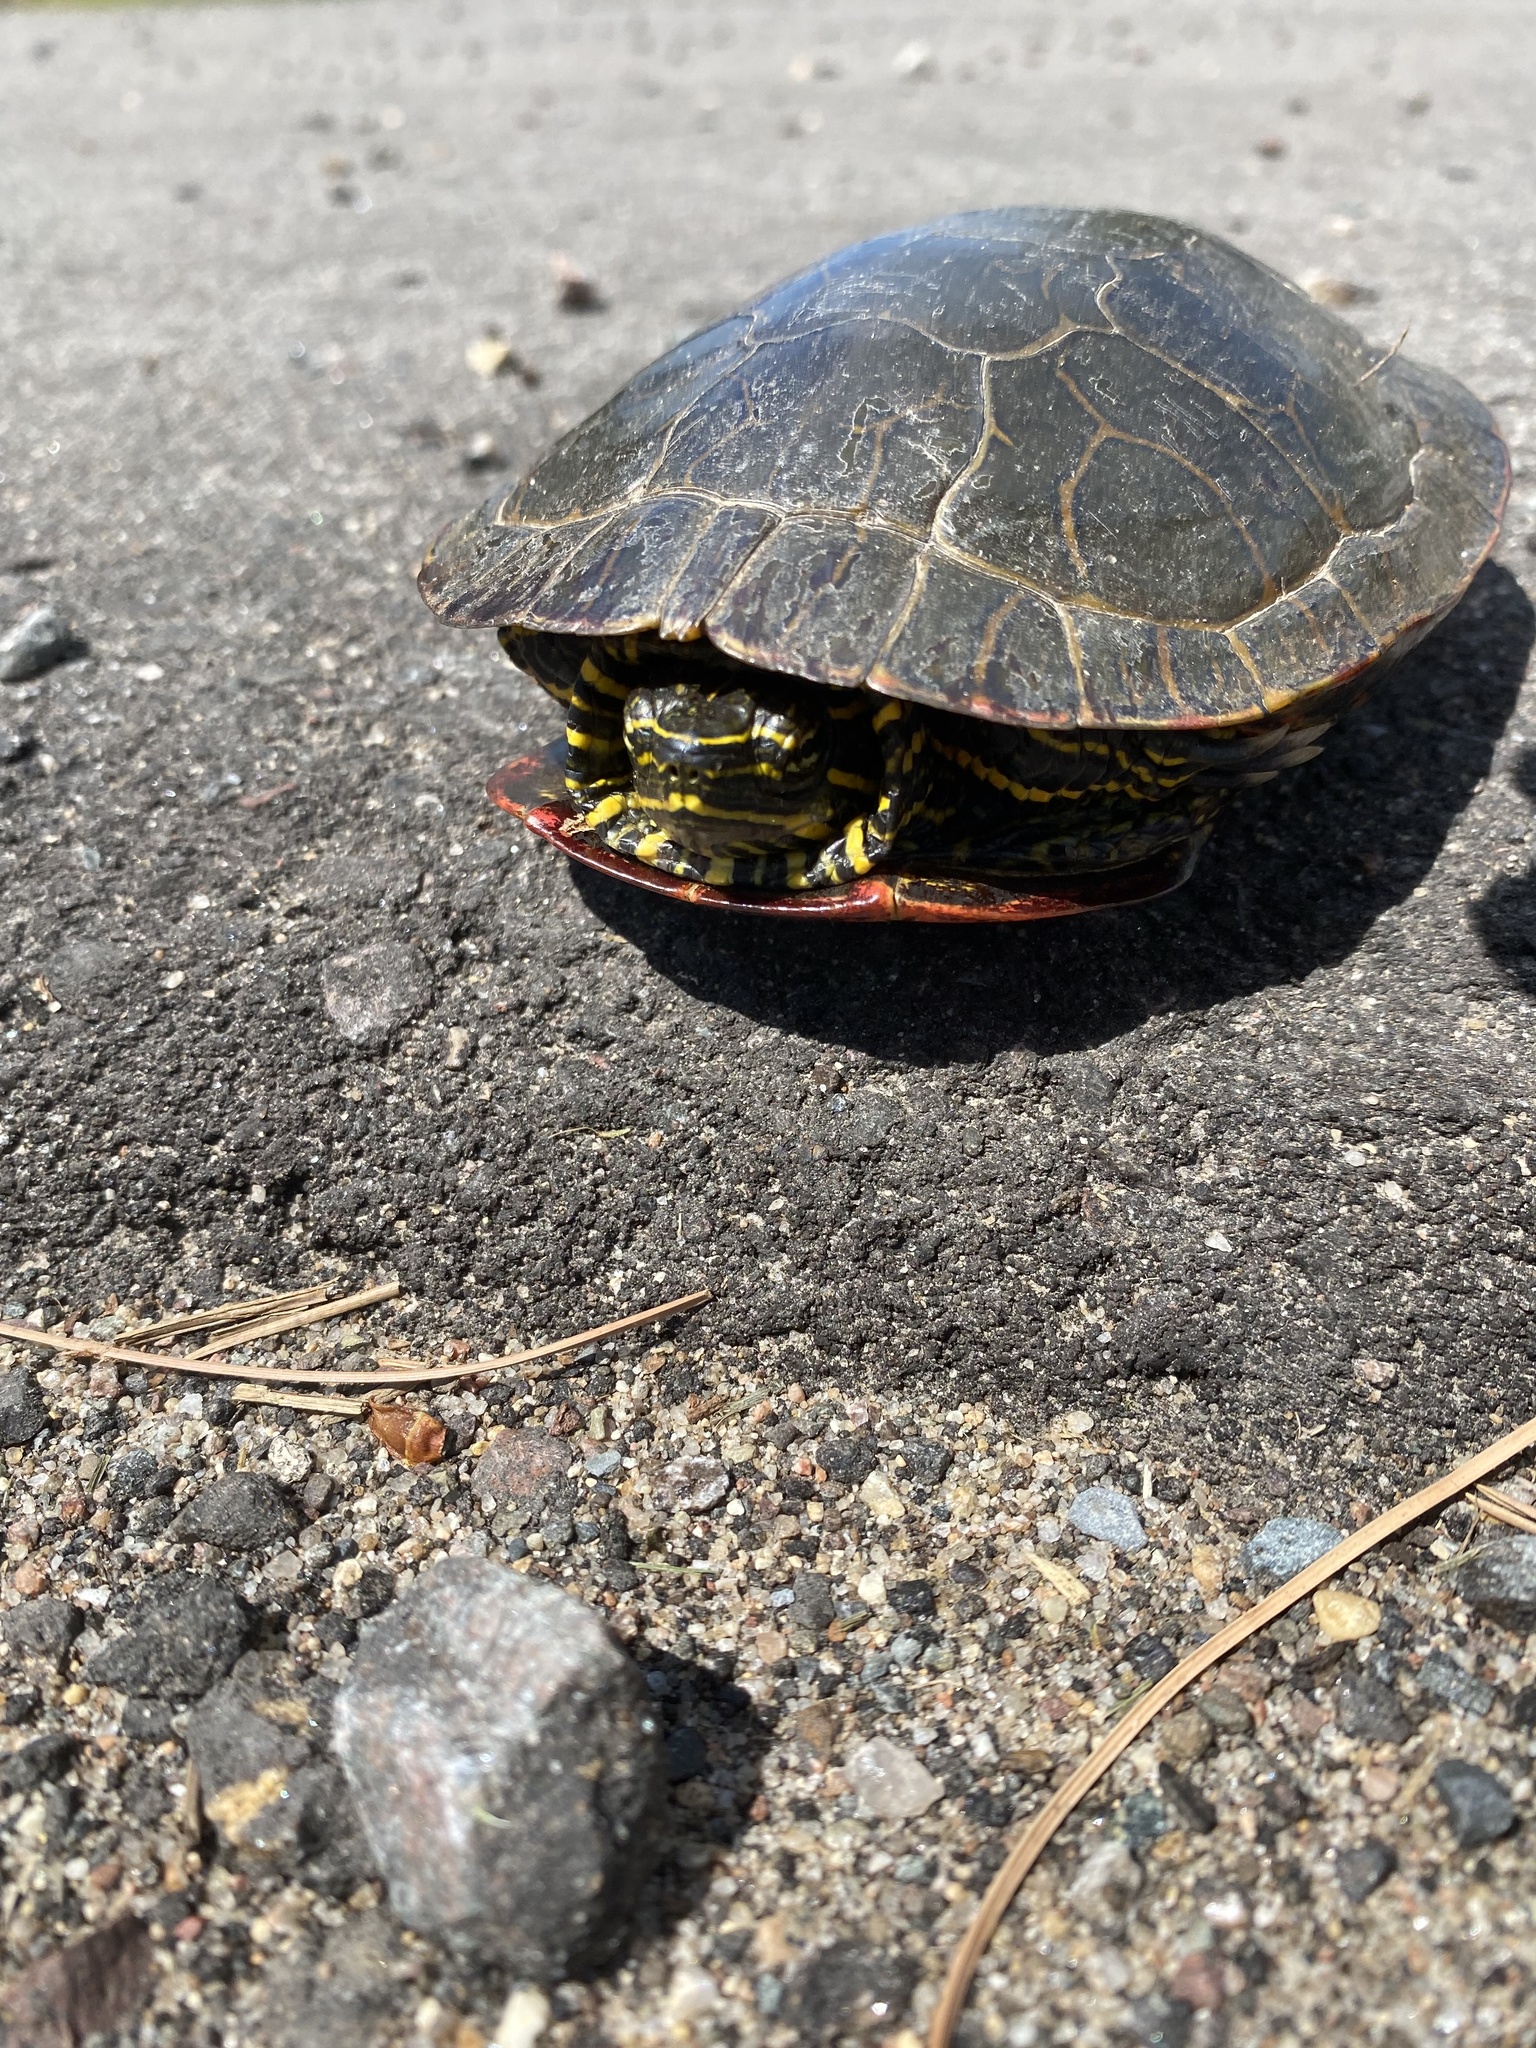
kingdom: Animalia
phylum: Chordata
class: Testudines
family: Emydidae
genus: Chrysemys
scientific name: Chrysemys picta
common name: Painted turtle
